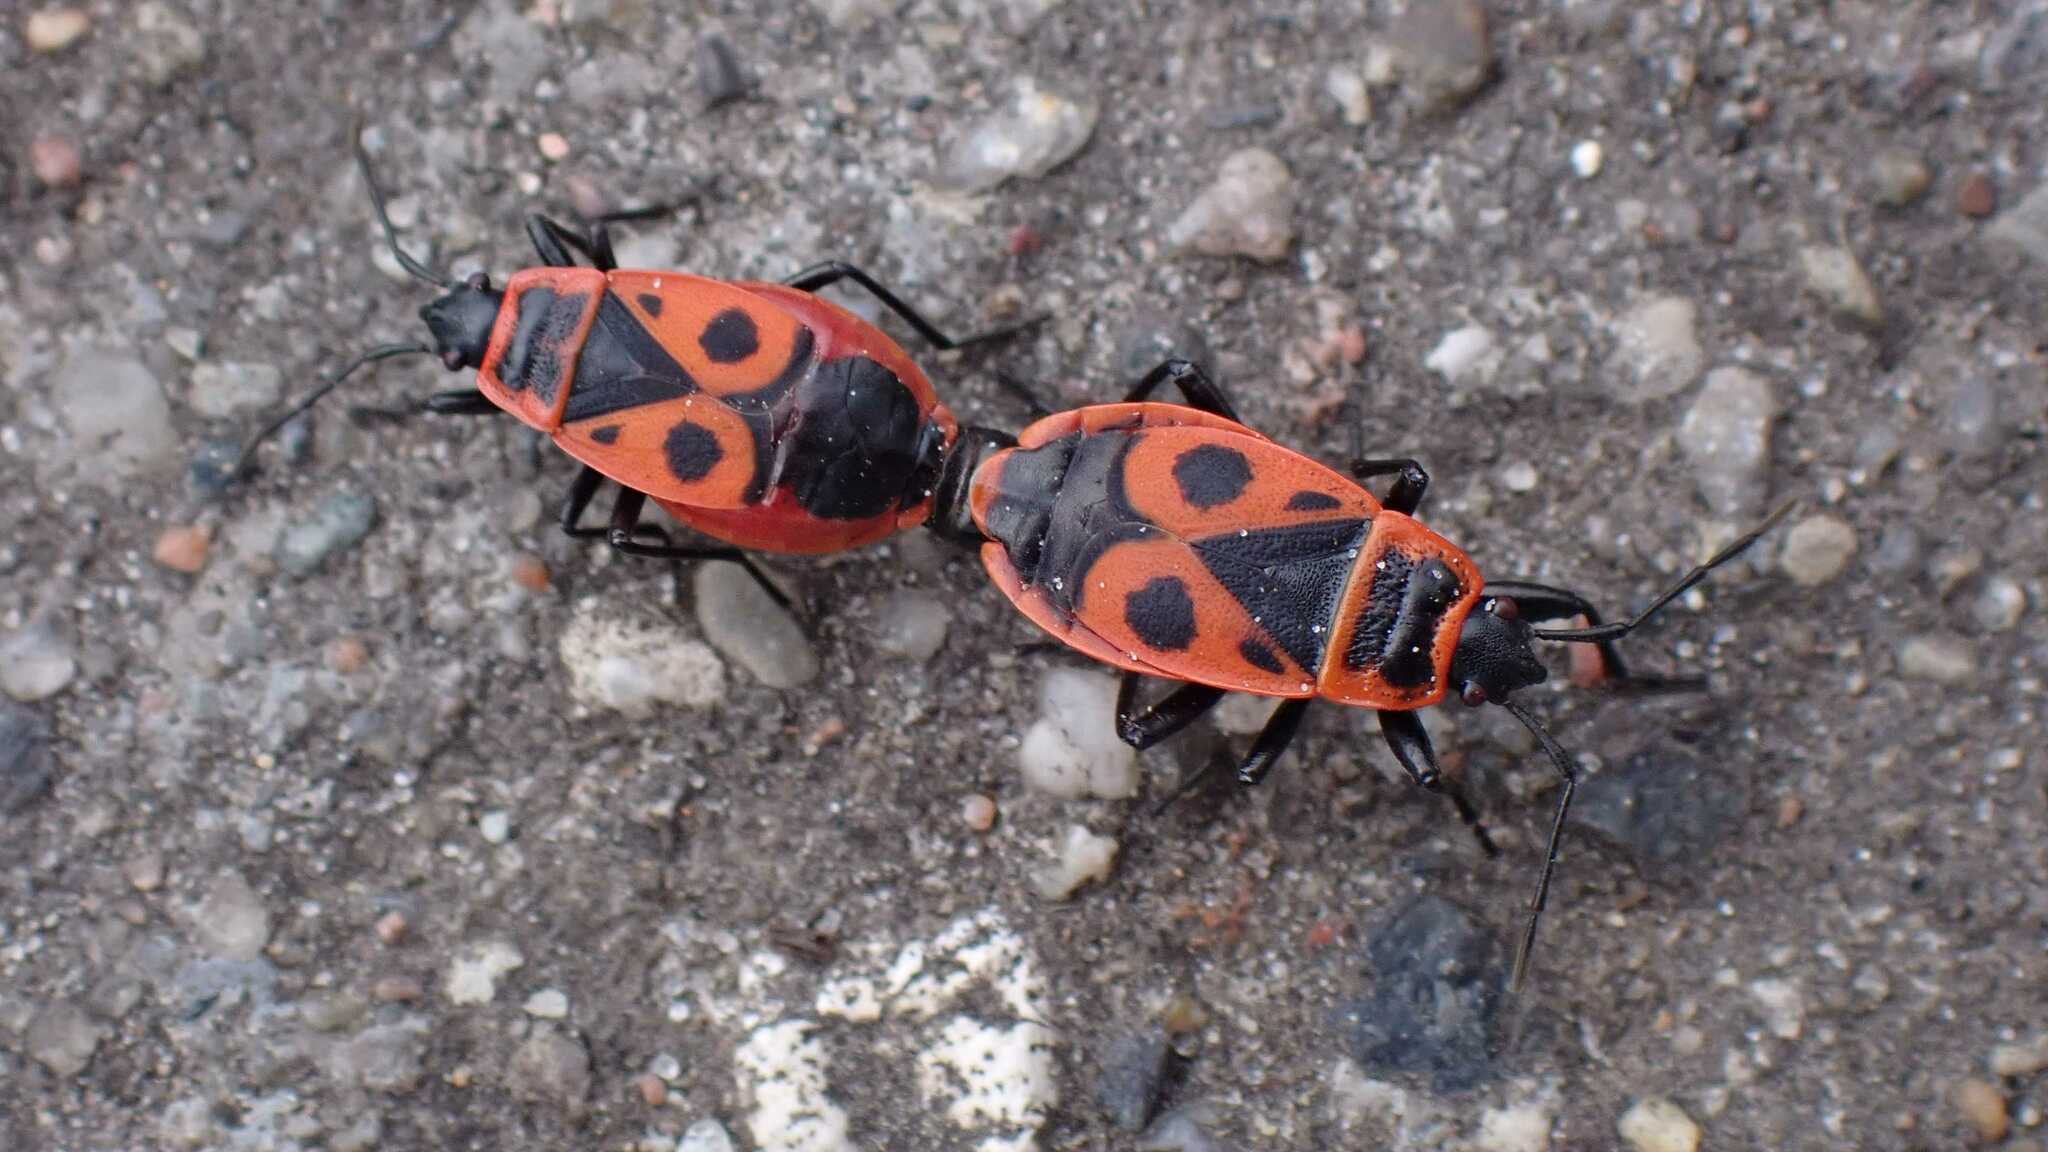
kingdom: Animalia
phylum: Arthropoda
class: Insecta
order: Hemiptera
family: Pyrrhocoridae
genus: Pyrrhocoris
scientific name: Pyrrhocoris apterus
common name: Firebug
